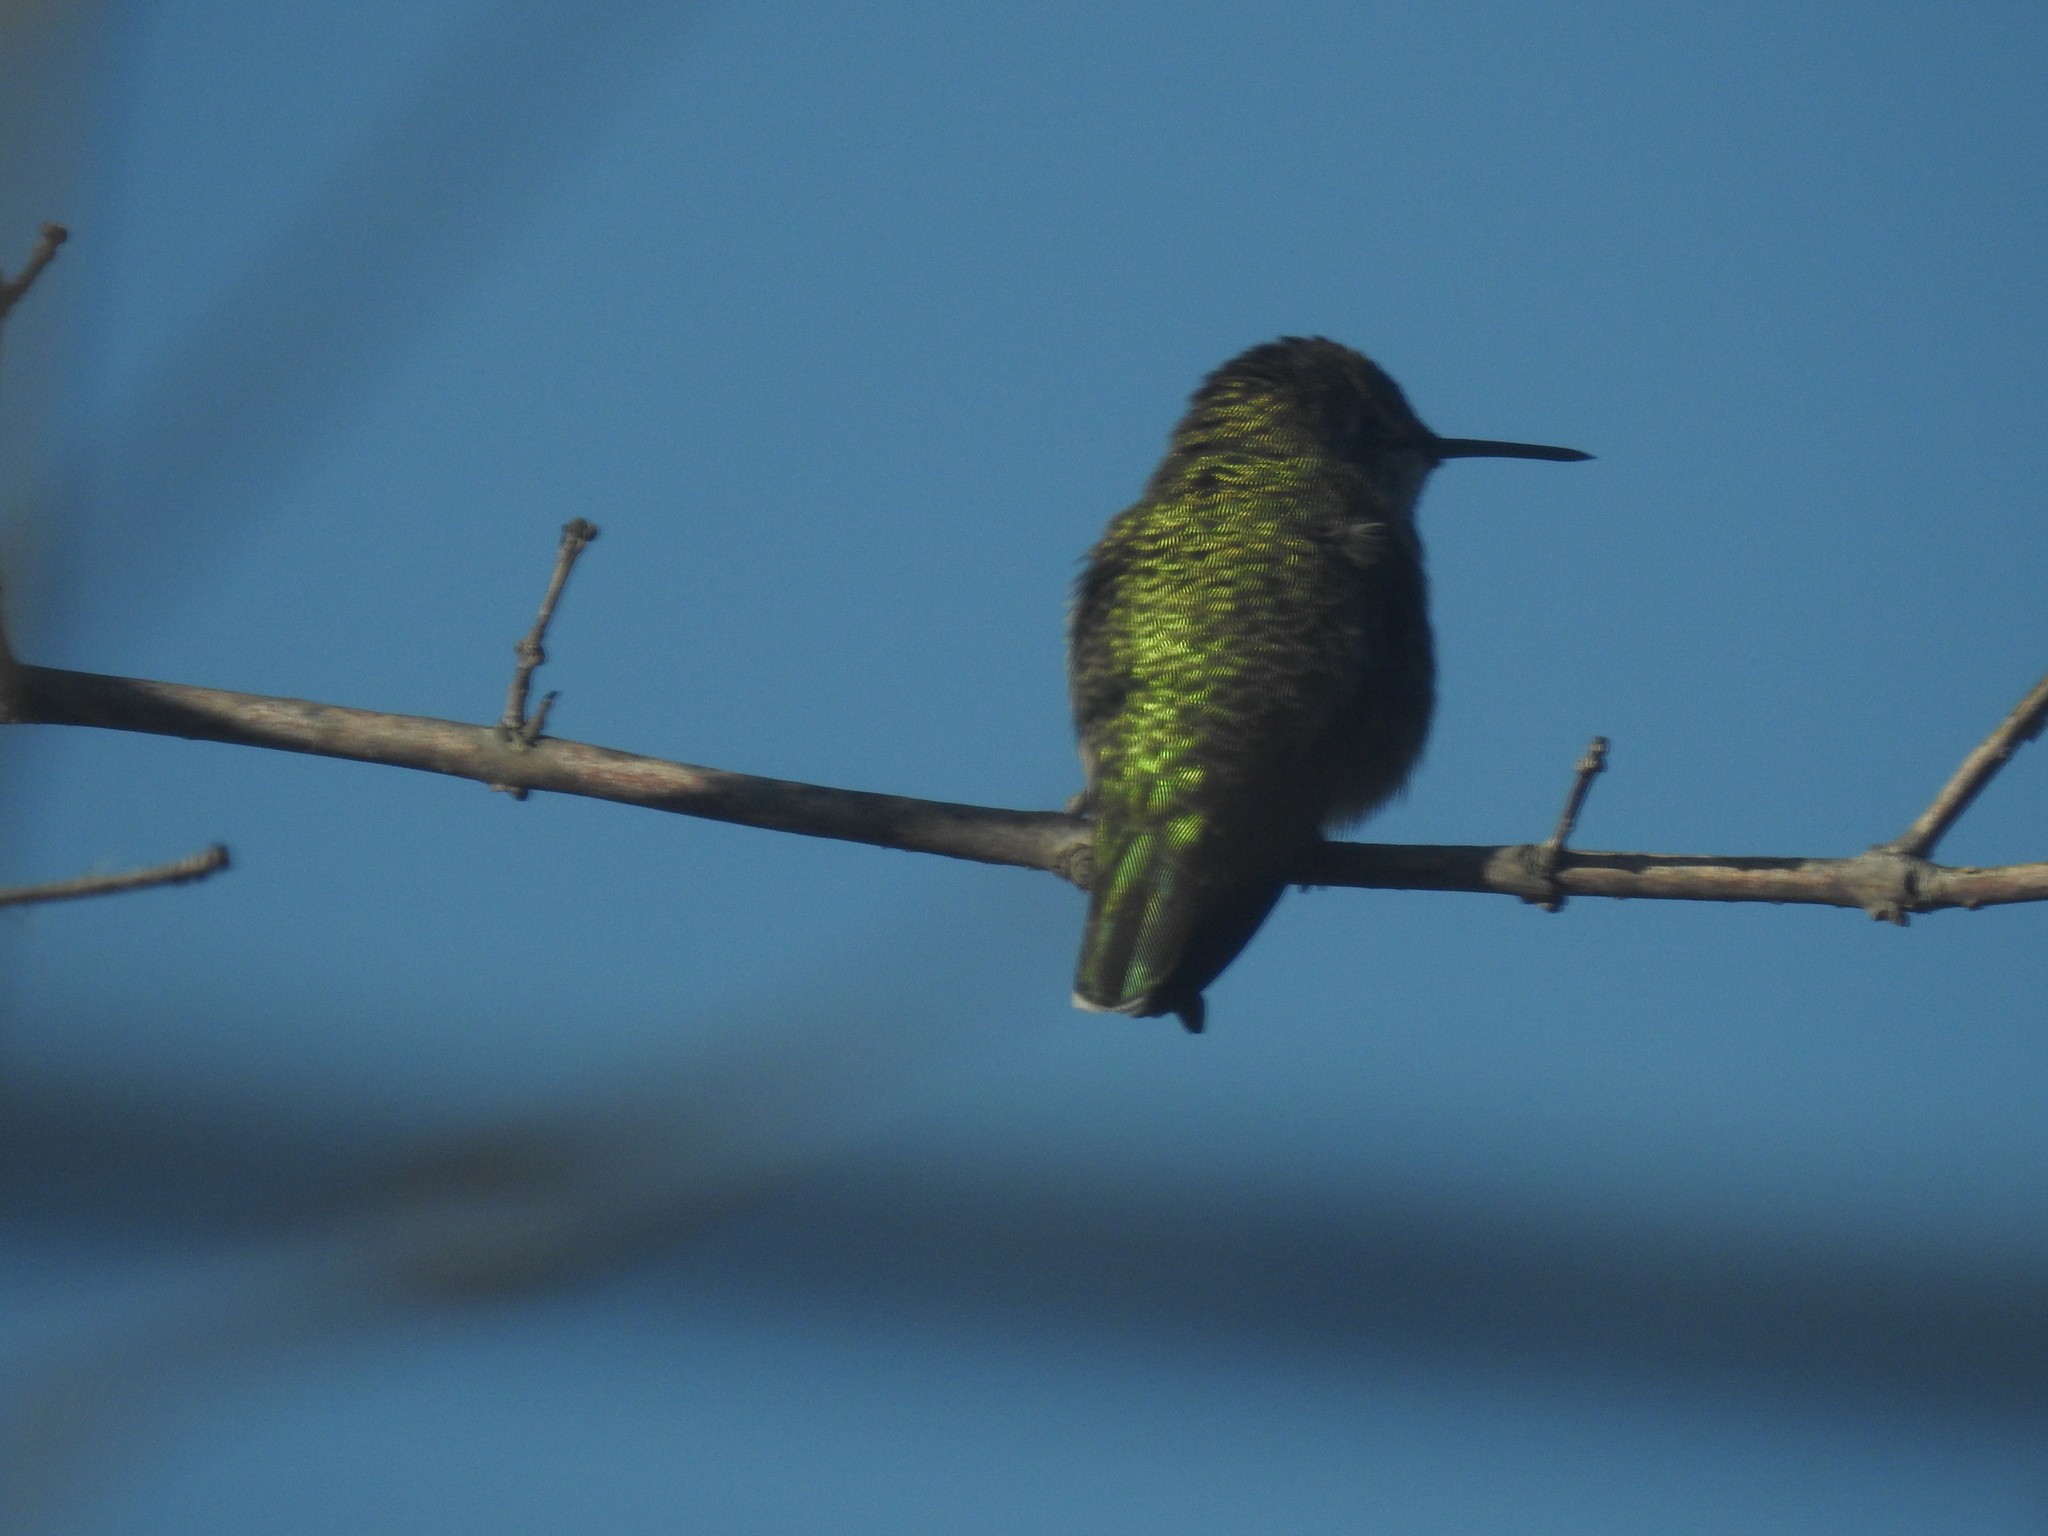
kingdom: Animalia
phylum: Chordata
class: Aves
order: Apodiformes
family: Trochilidae
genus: Calypte
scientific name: Calypte anna
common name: Anna's hummingbird
